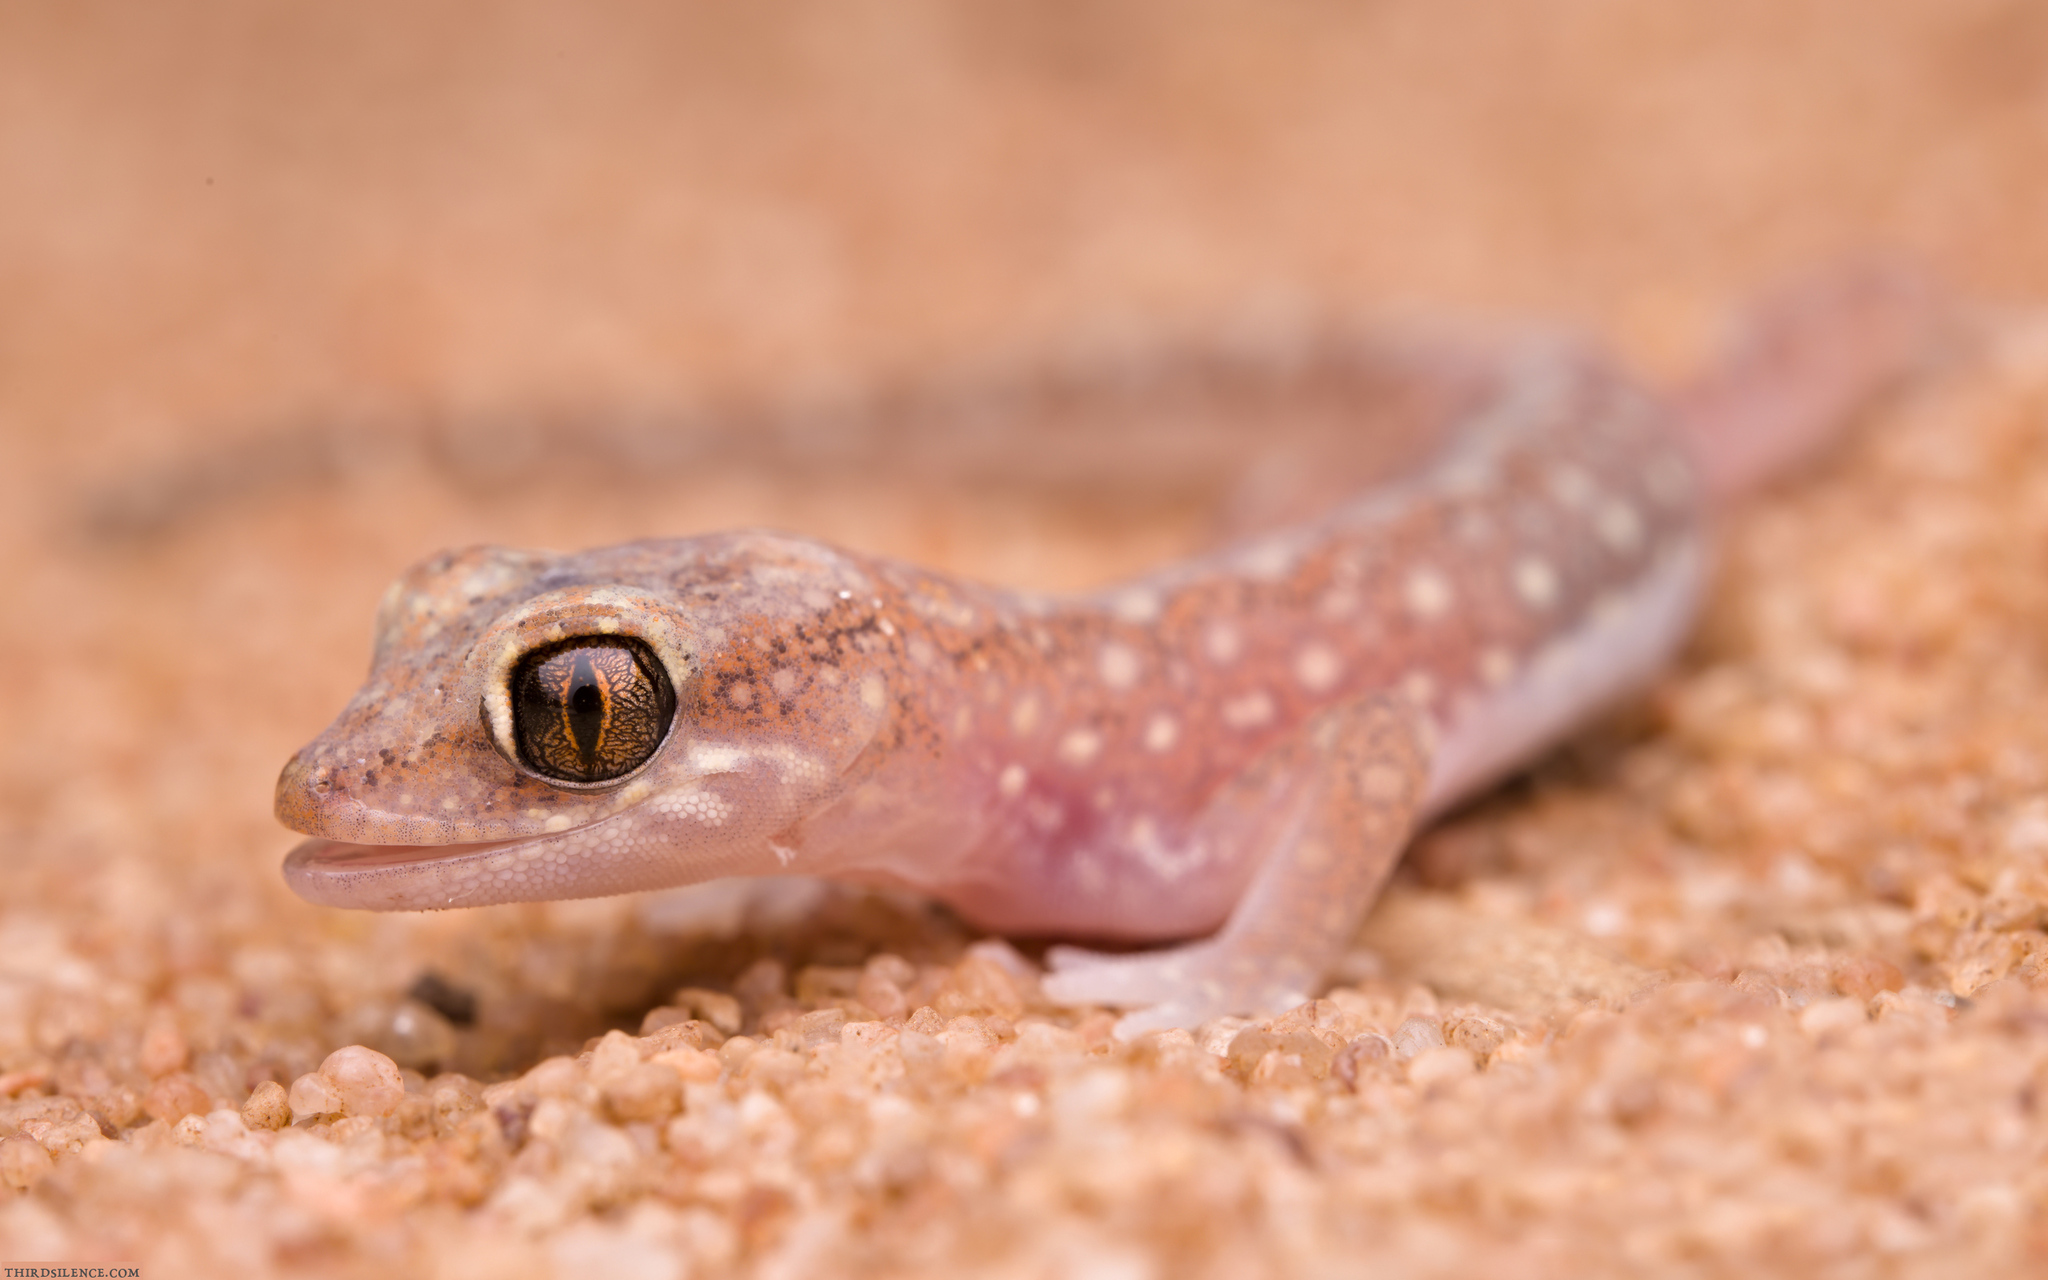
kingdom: Animalia
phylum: Chordata
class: Squamata
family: Diplodactylidae
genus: Lucasium
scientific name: Lucasium damaeum
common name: Beaded gecko
